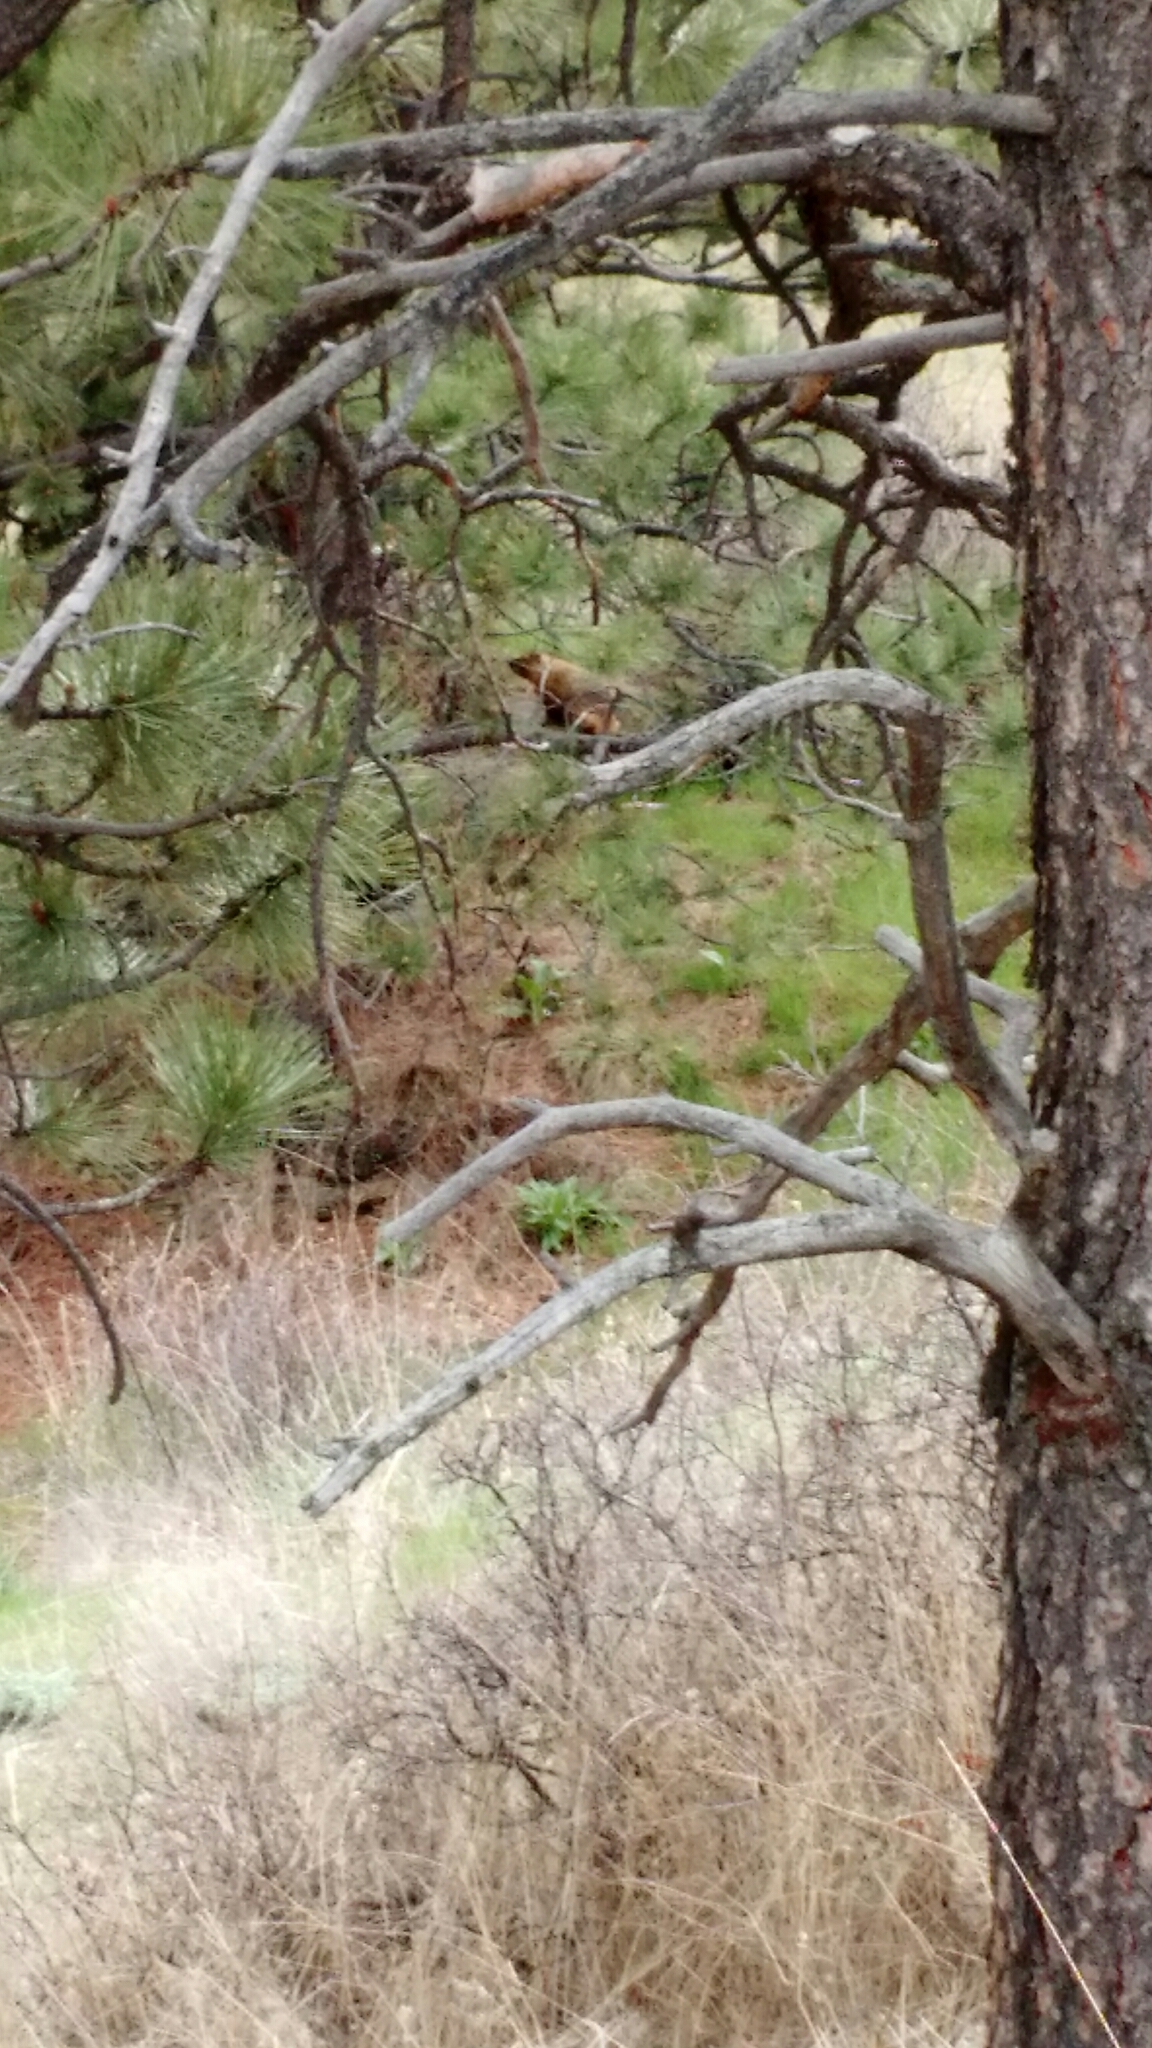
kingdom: Animalia
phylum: Chordata
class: Mammalia
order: Rodentia
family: Sciuridae
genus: Marmota
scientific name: Marmota flaviventris
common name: Yellow-bellied marmot
